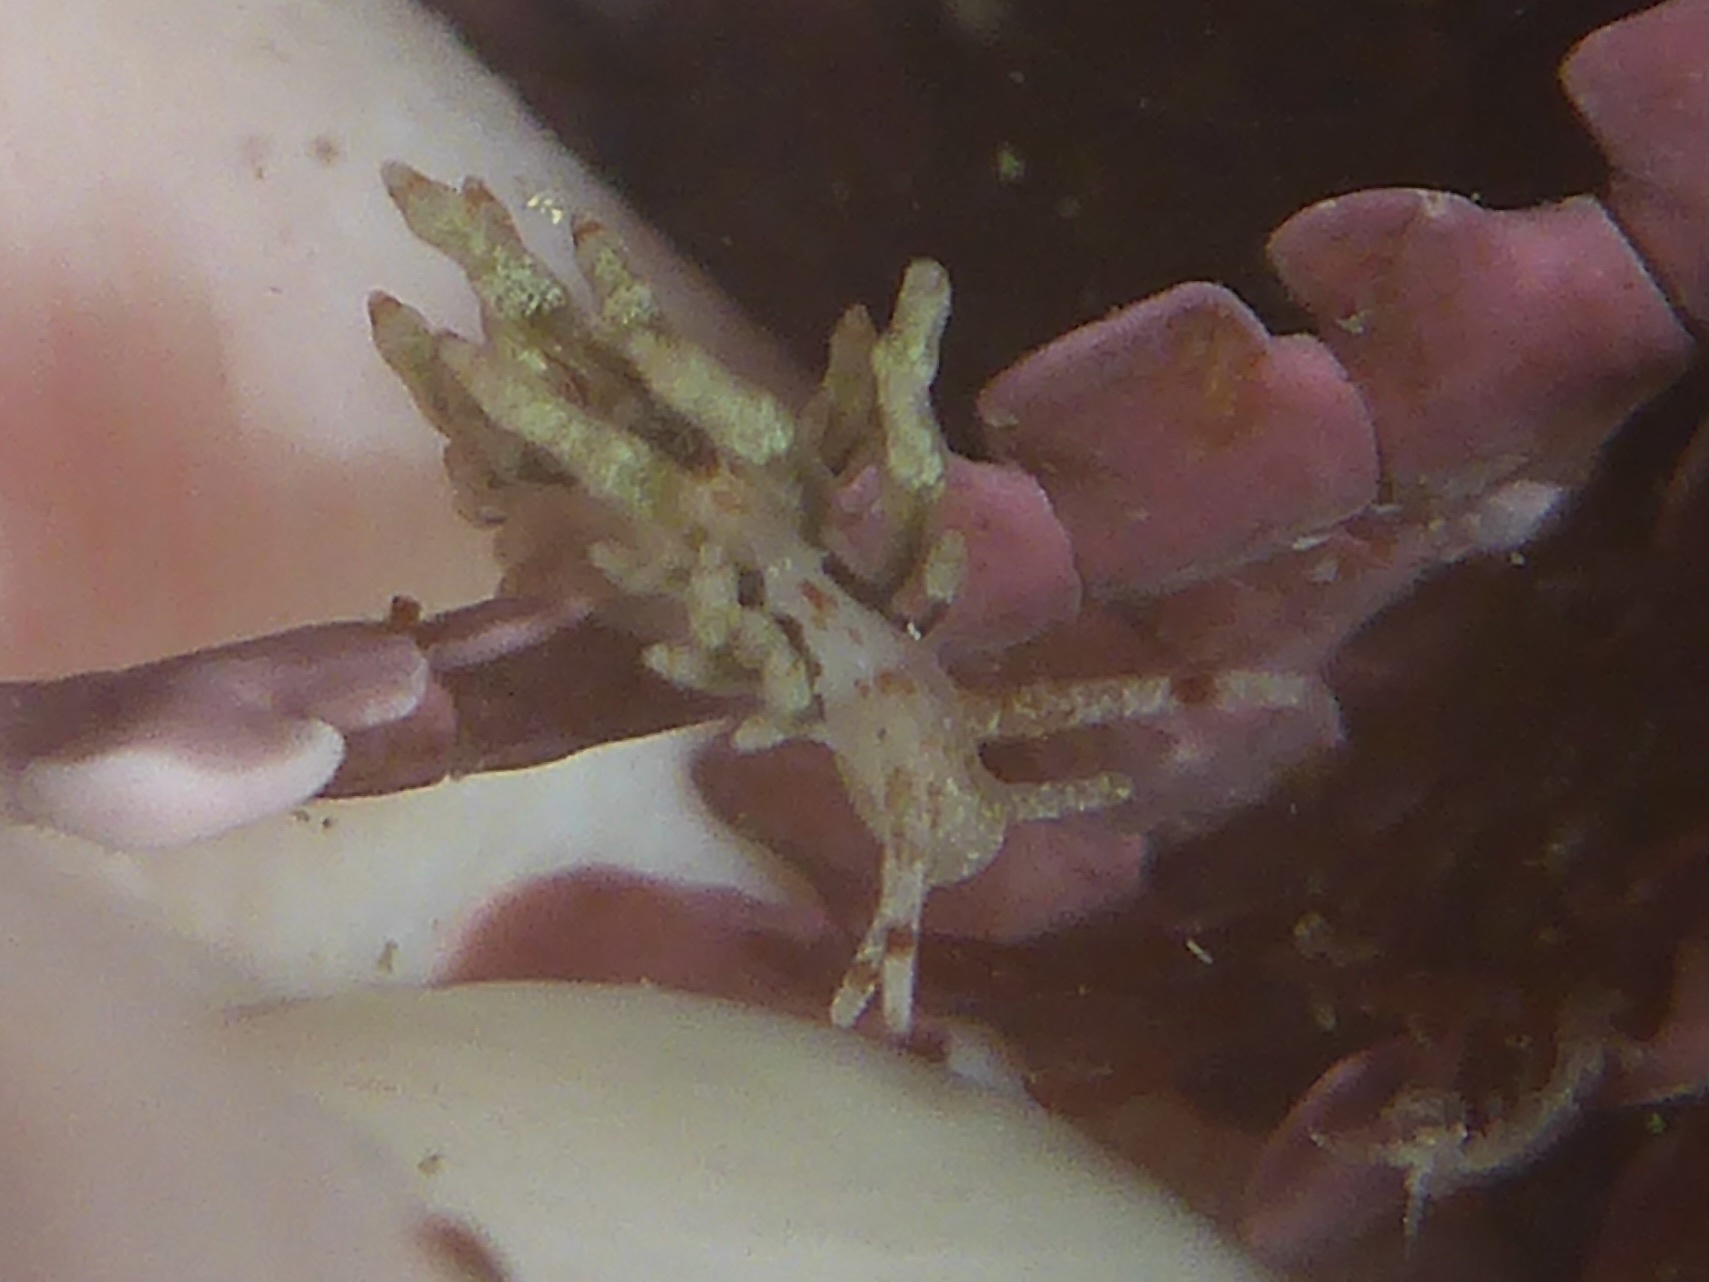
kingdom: Animalia
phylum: Mollusca
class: Gastropoda
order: Nudibranchia
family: Eubranchidae
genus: Eubranchus
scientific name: Eubranchus olivaceus
